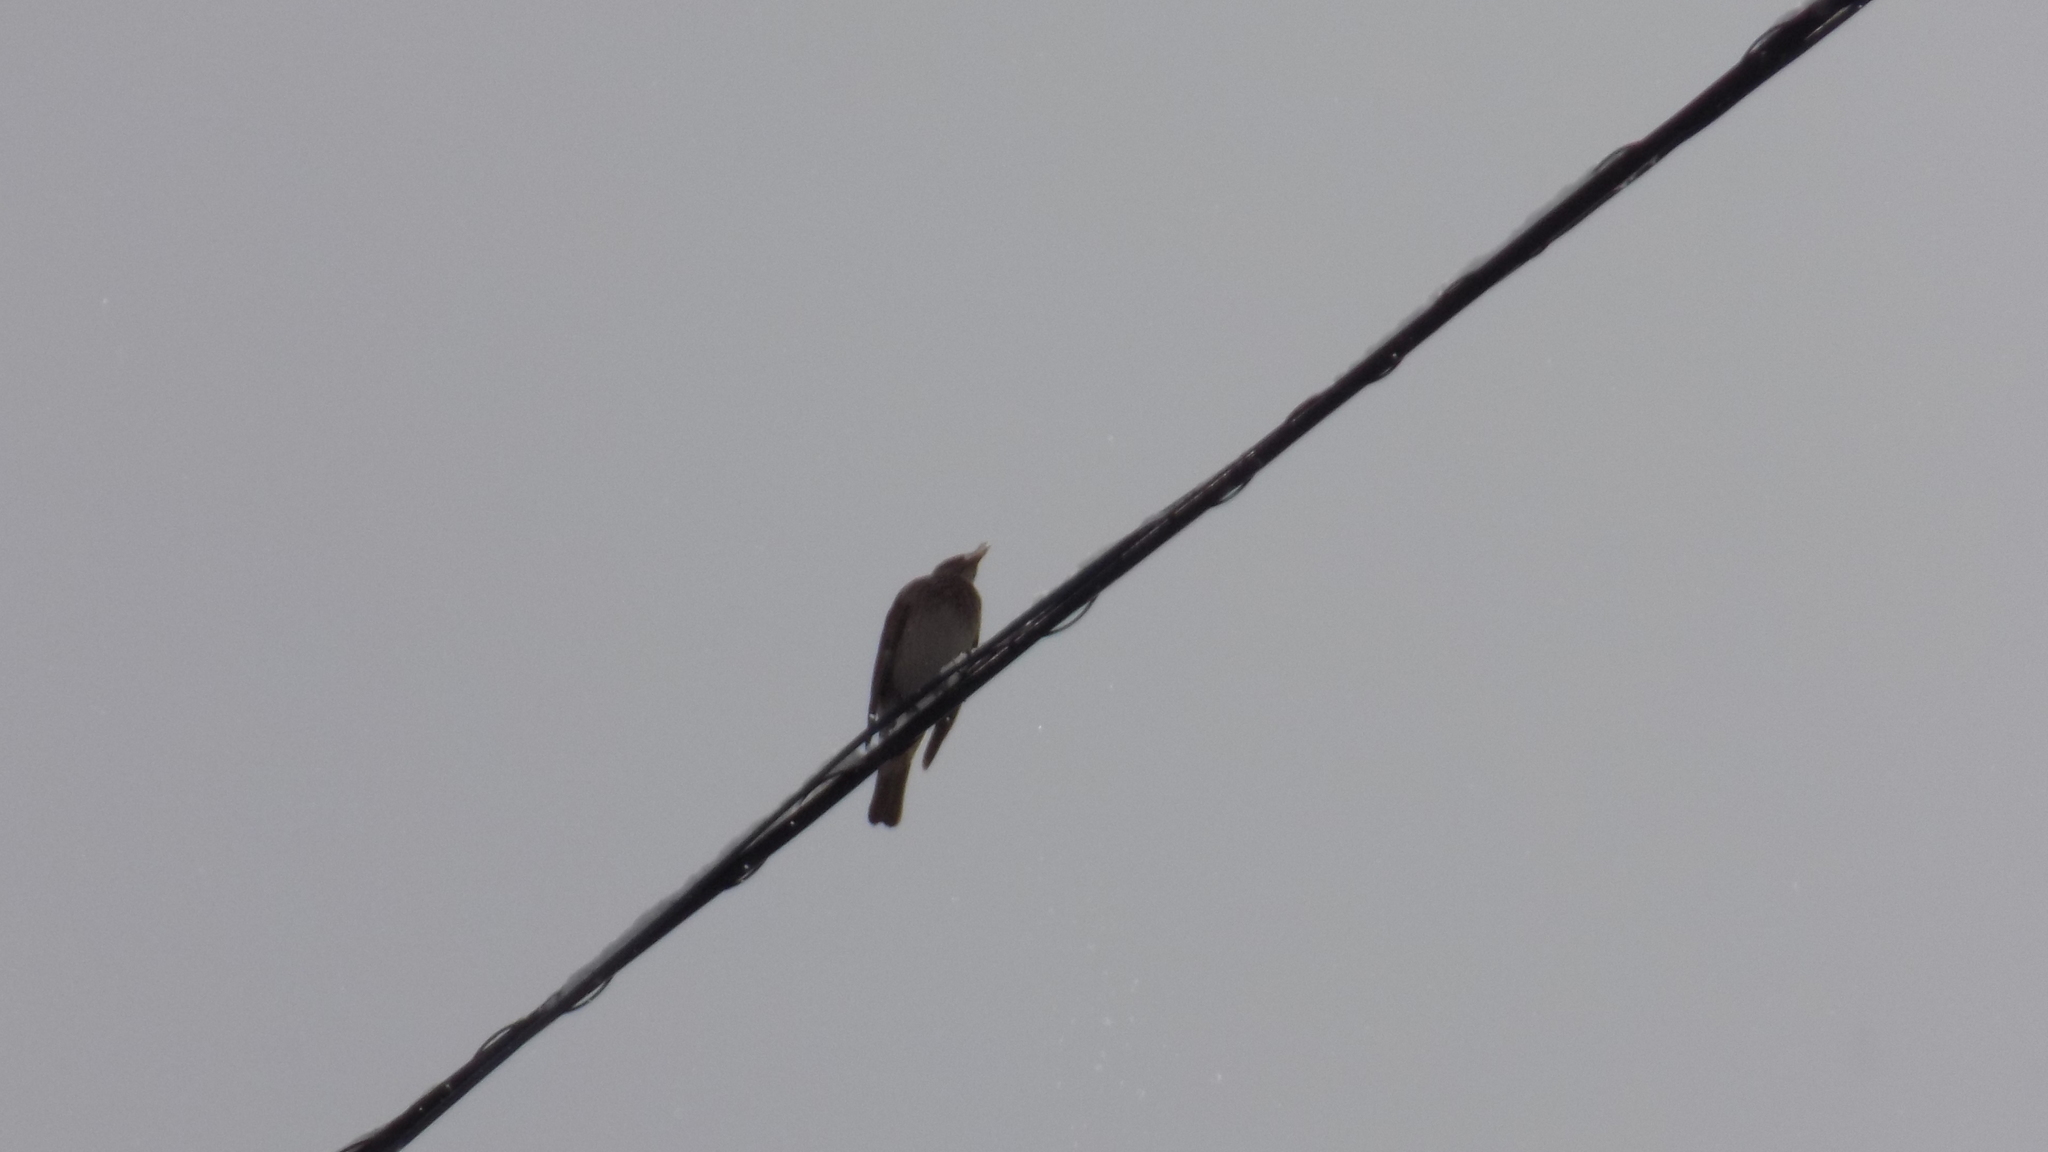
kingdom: Animalia
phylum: Chordata
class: Aves
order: Passeriformes
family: Turdidae
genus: Turdus
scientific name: Turdus atrogularis
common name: Black-throated thrush
